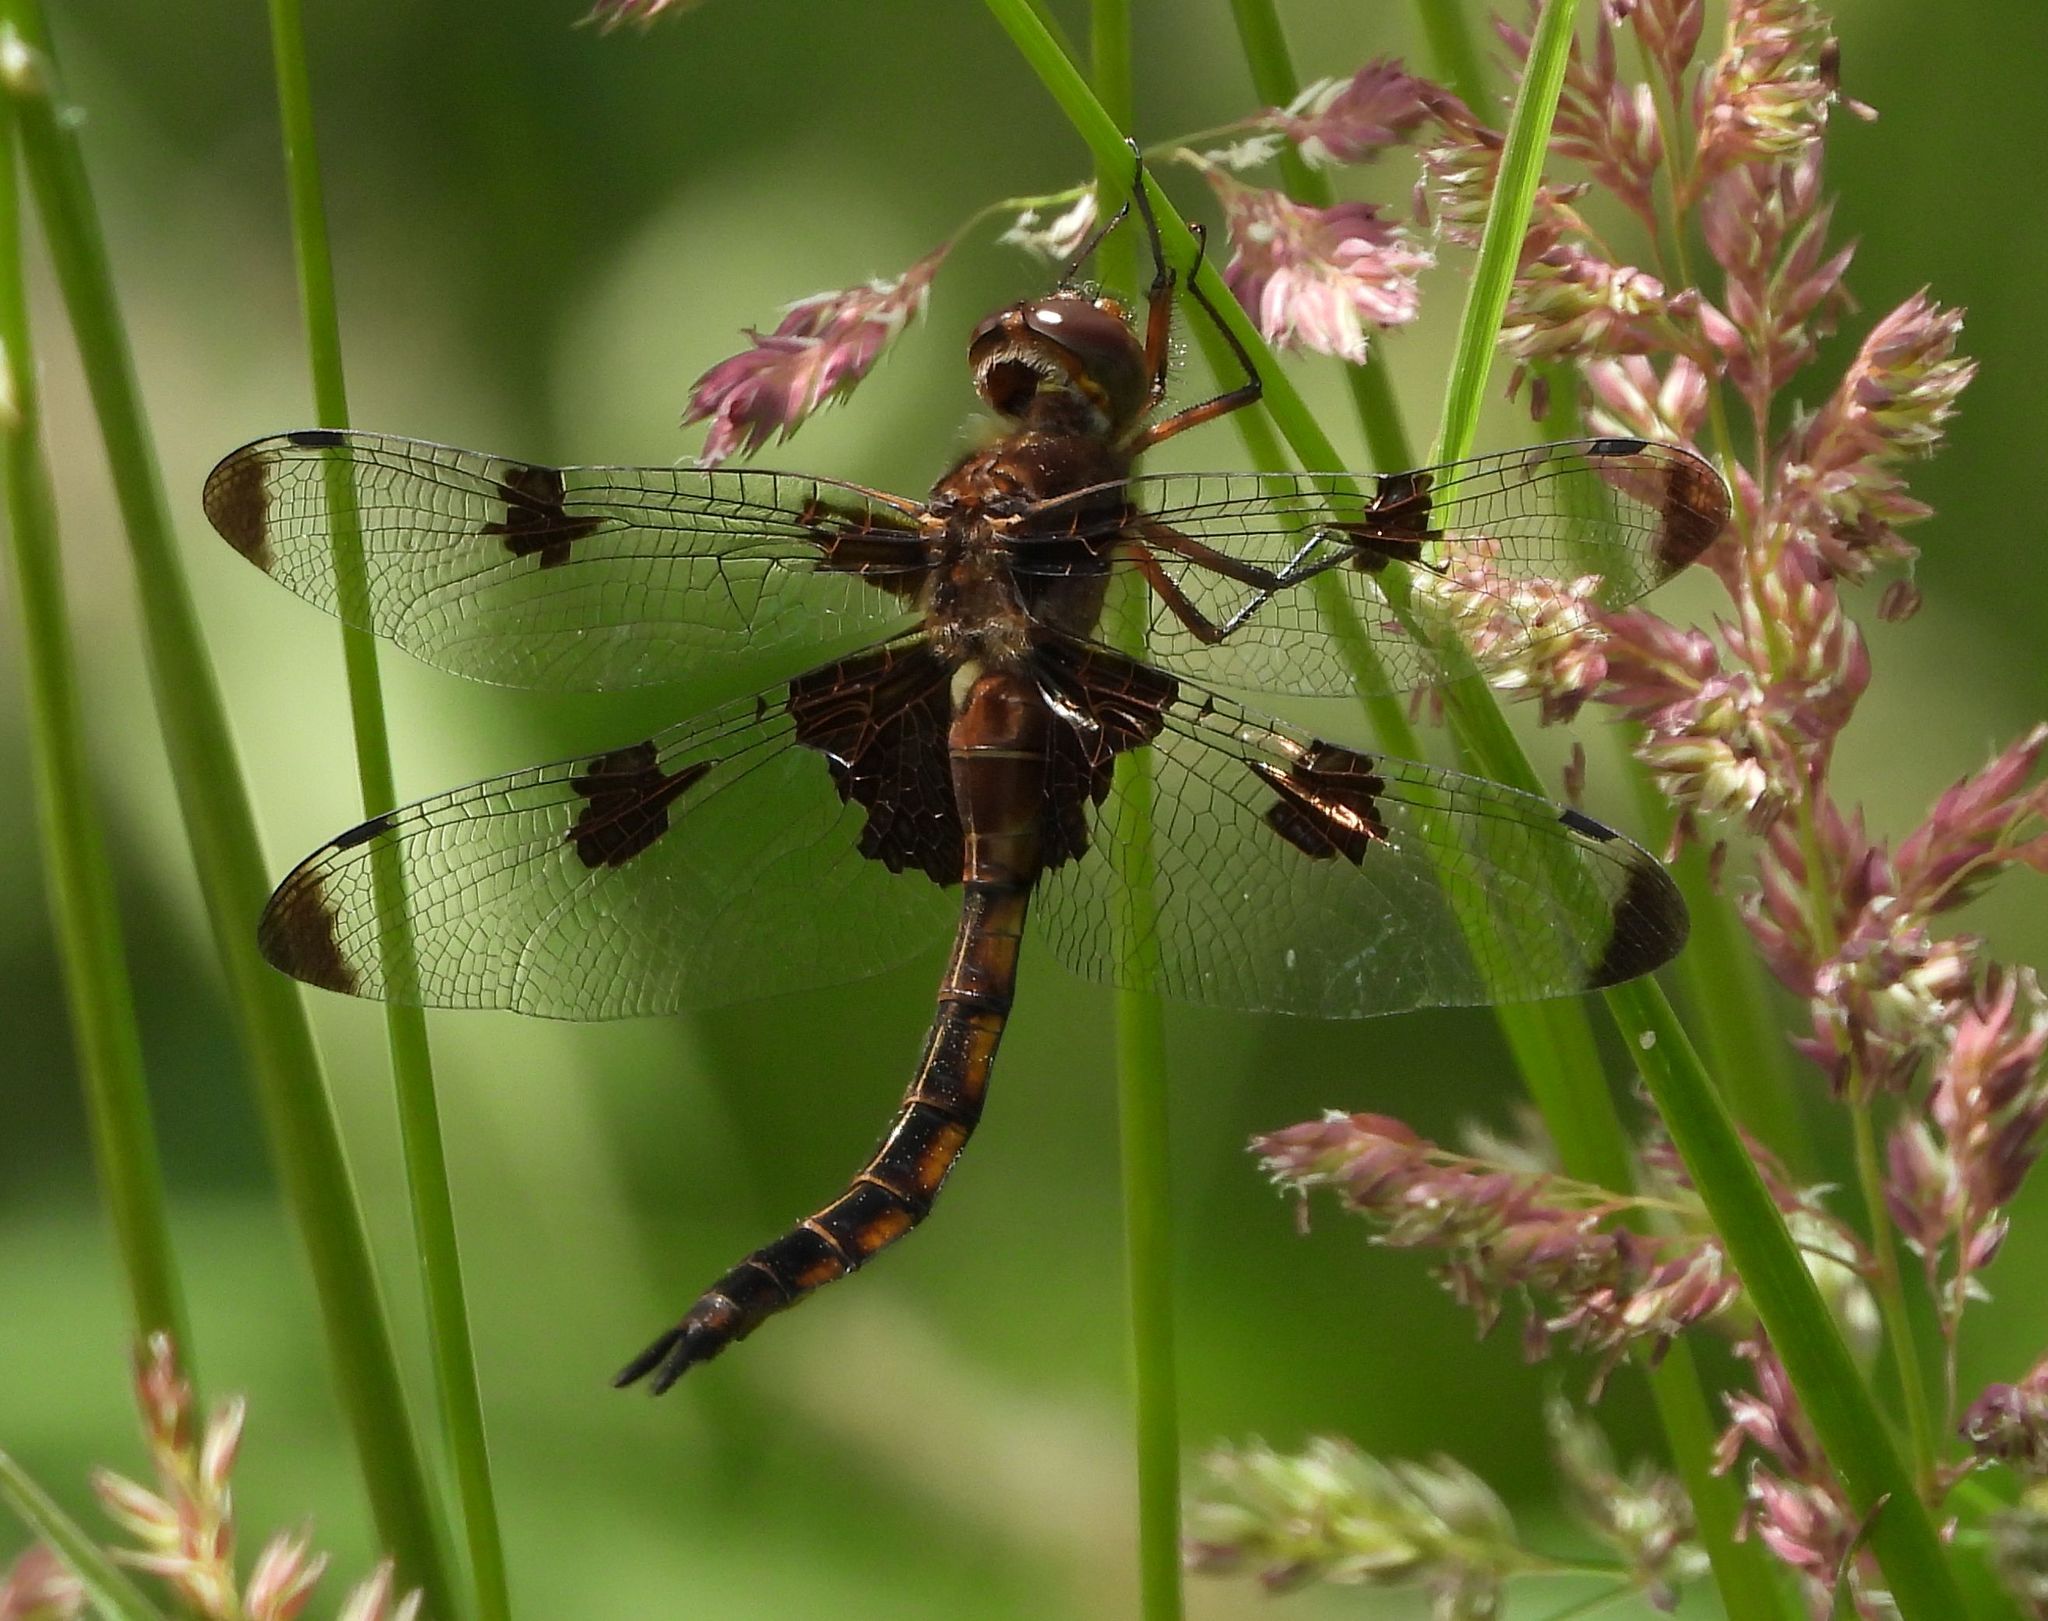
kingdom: Animalia
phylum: Arthropoda
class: Insecta
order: Odonata
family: Corduliidae
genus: Epitheca
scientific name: Epitheca princeps
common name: Prince baskettail
